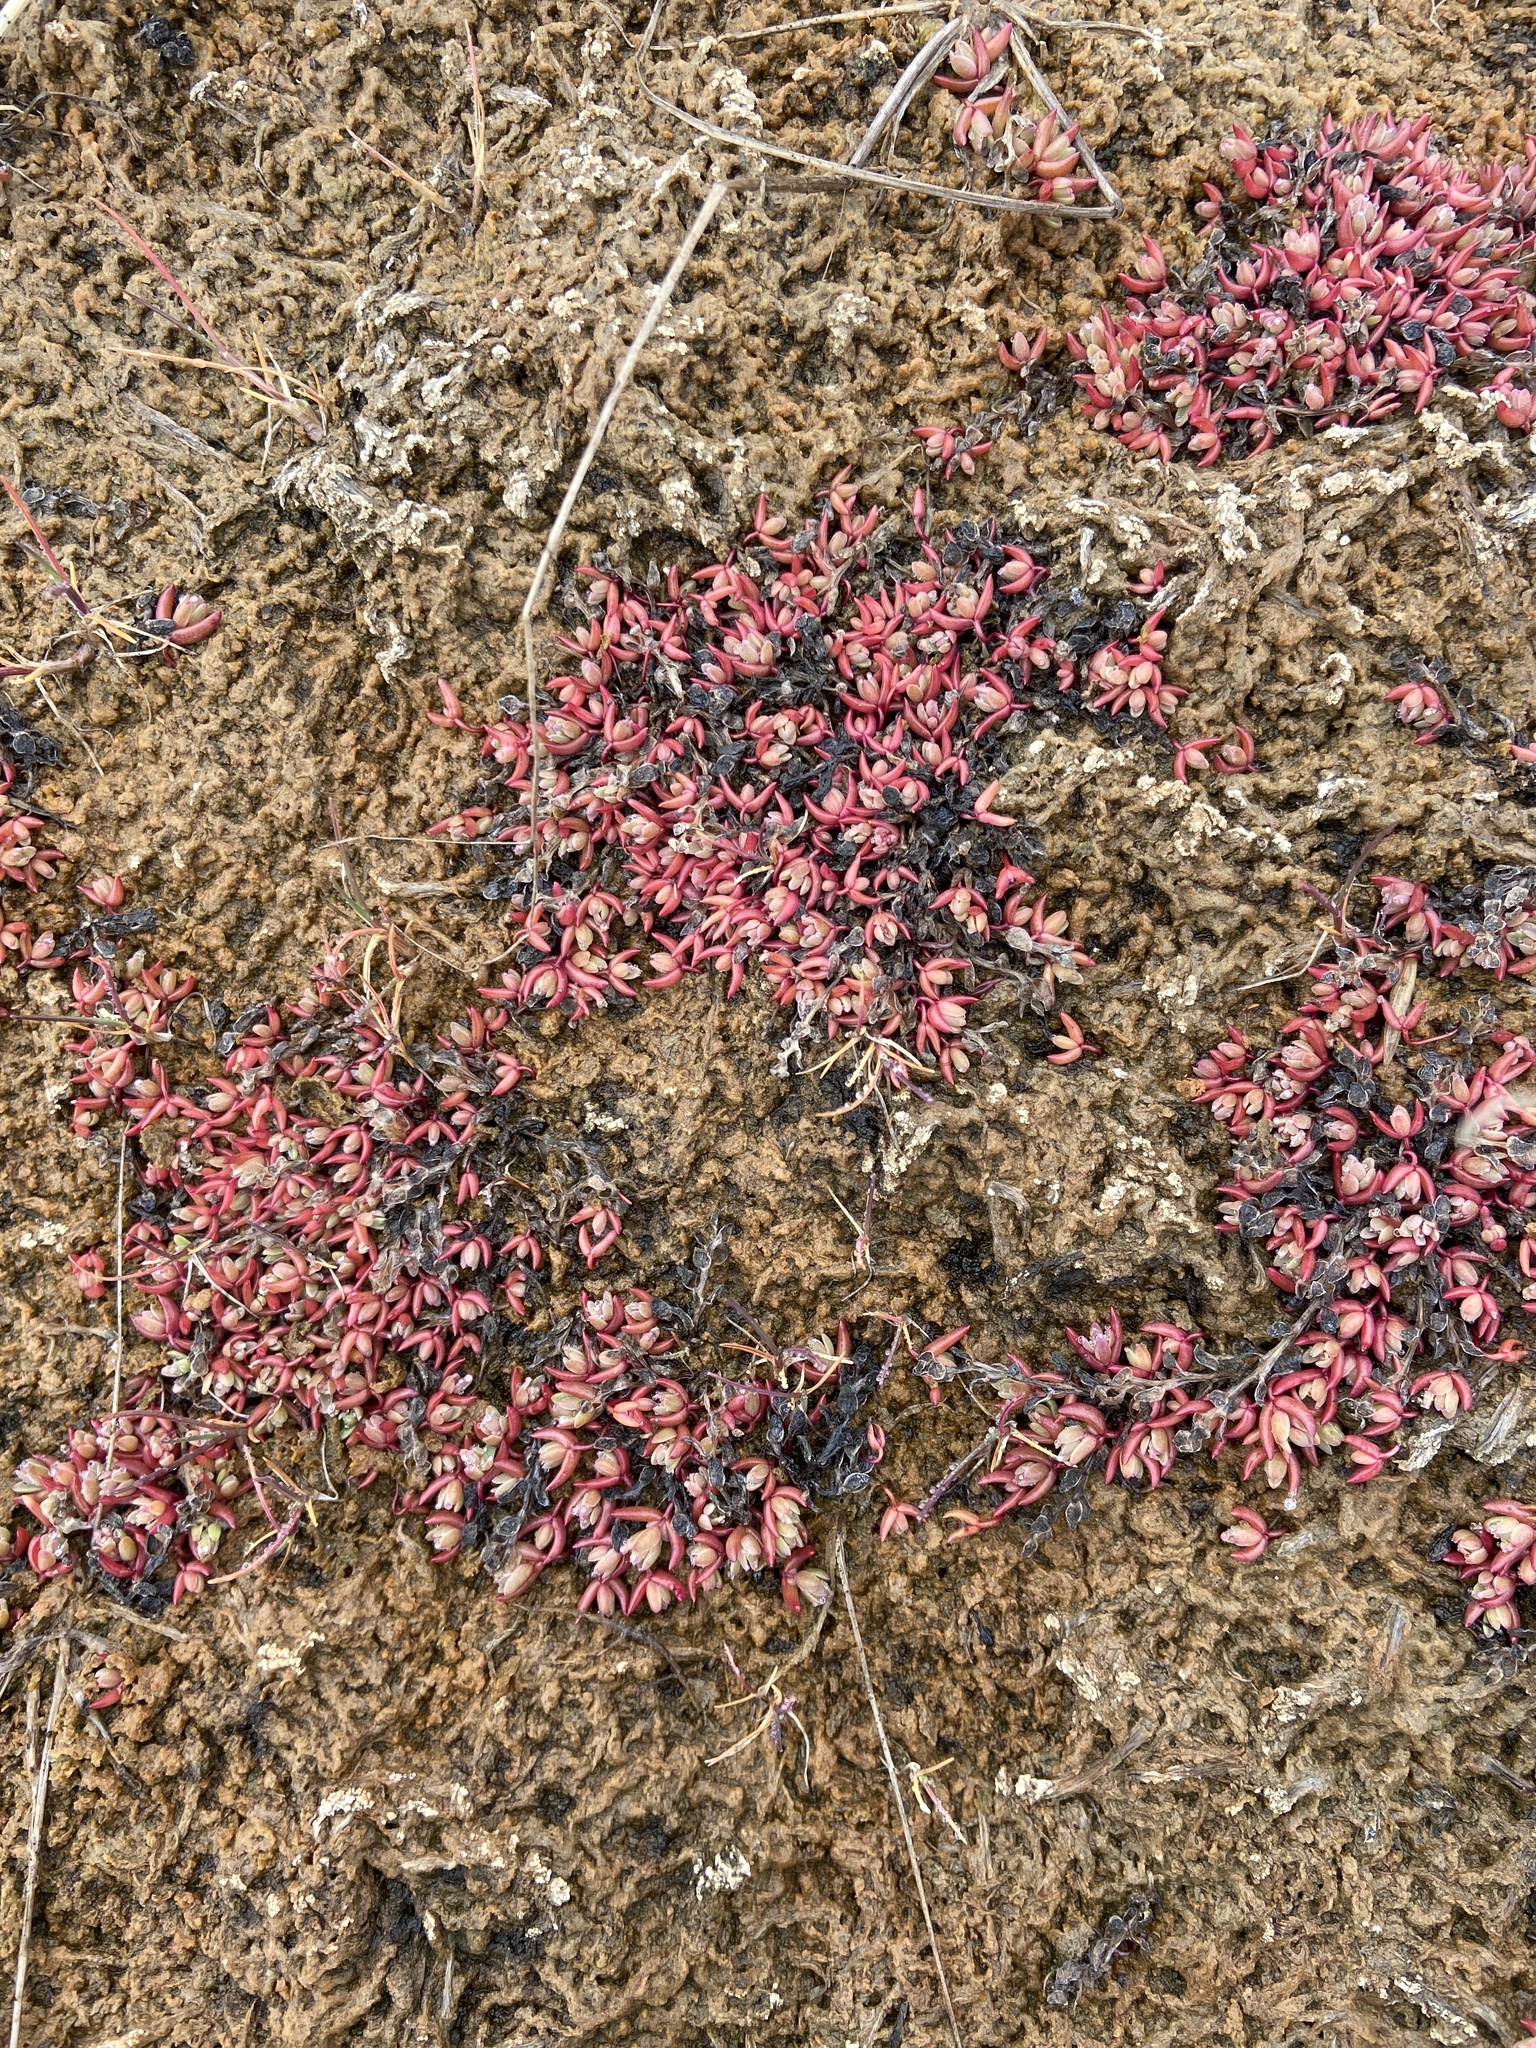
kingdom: Plantae
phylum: Tracheophyta
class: Magnoliopsida
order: Caryophyllales
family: Amaranthaceae
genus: Suaeda
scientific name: Suaeda arctica
